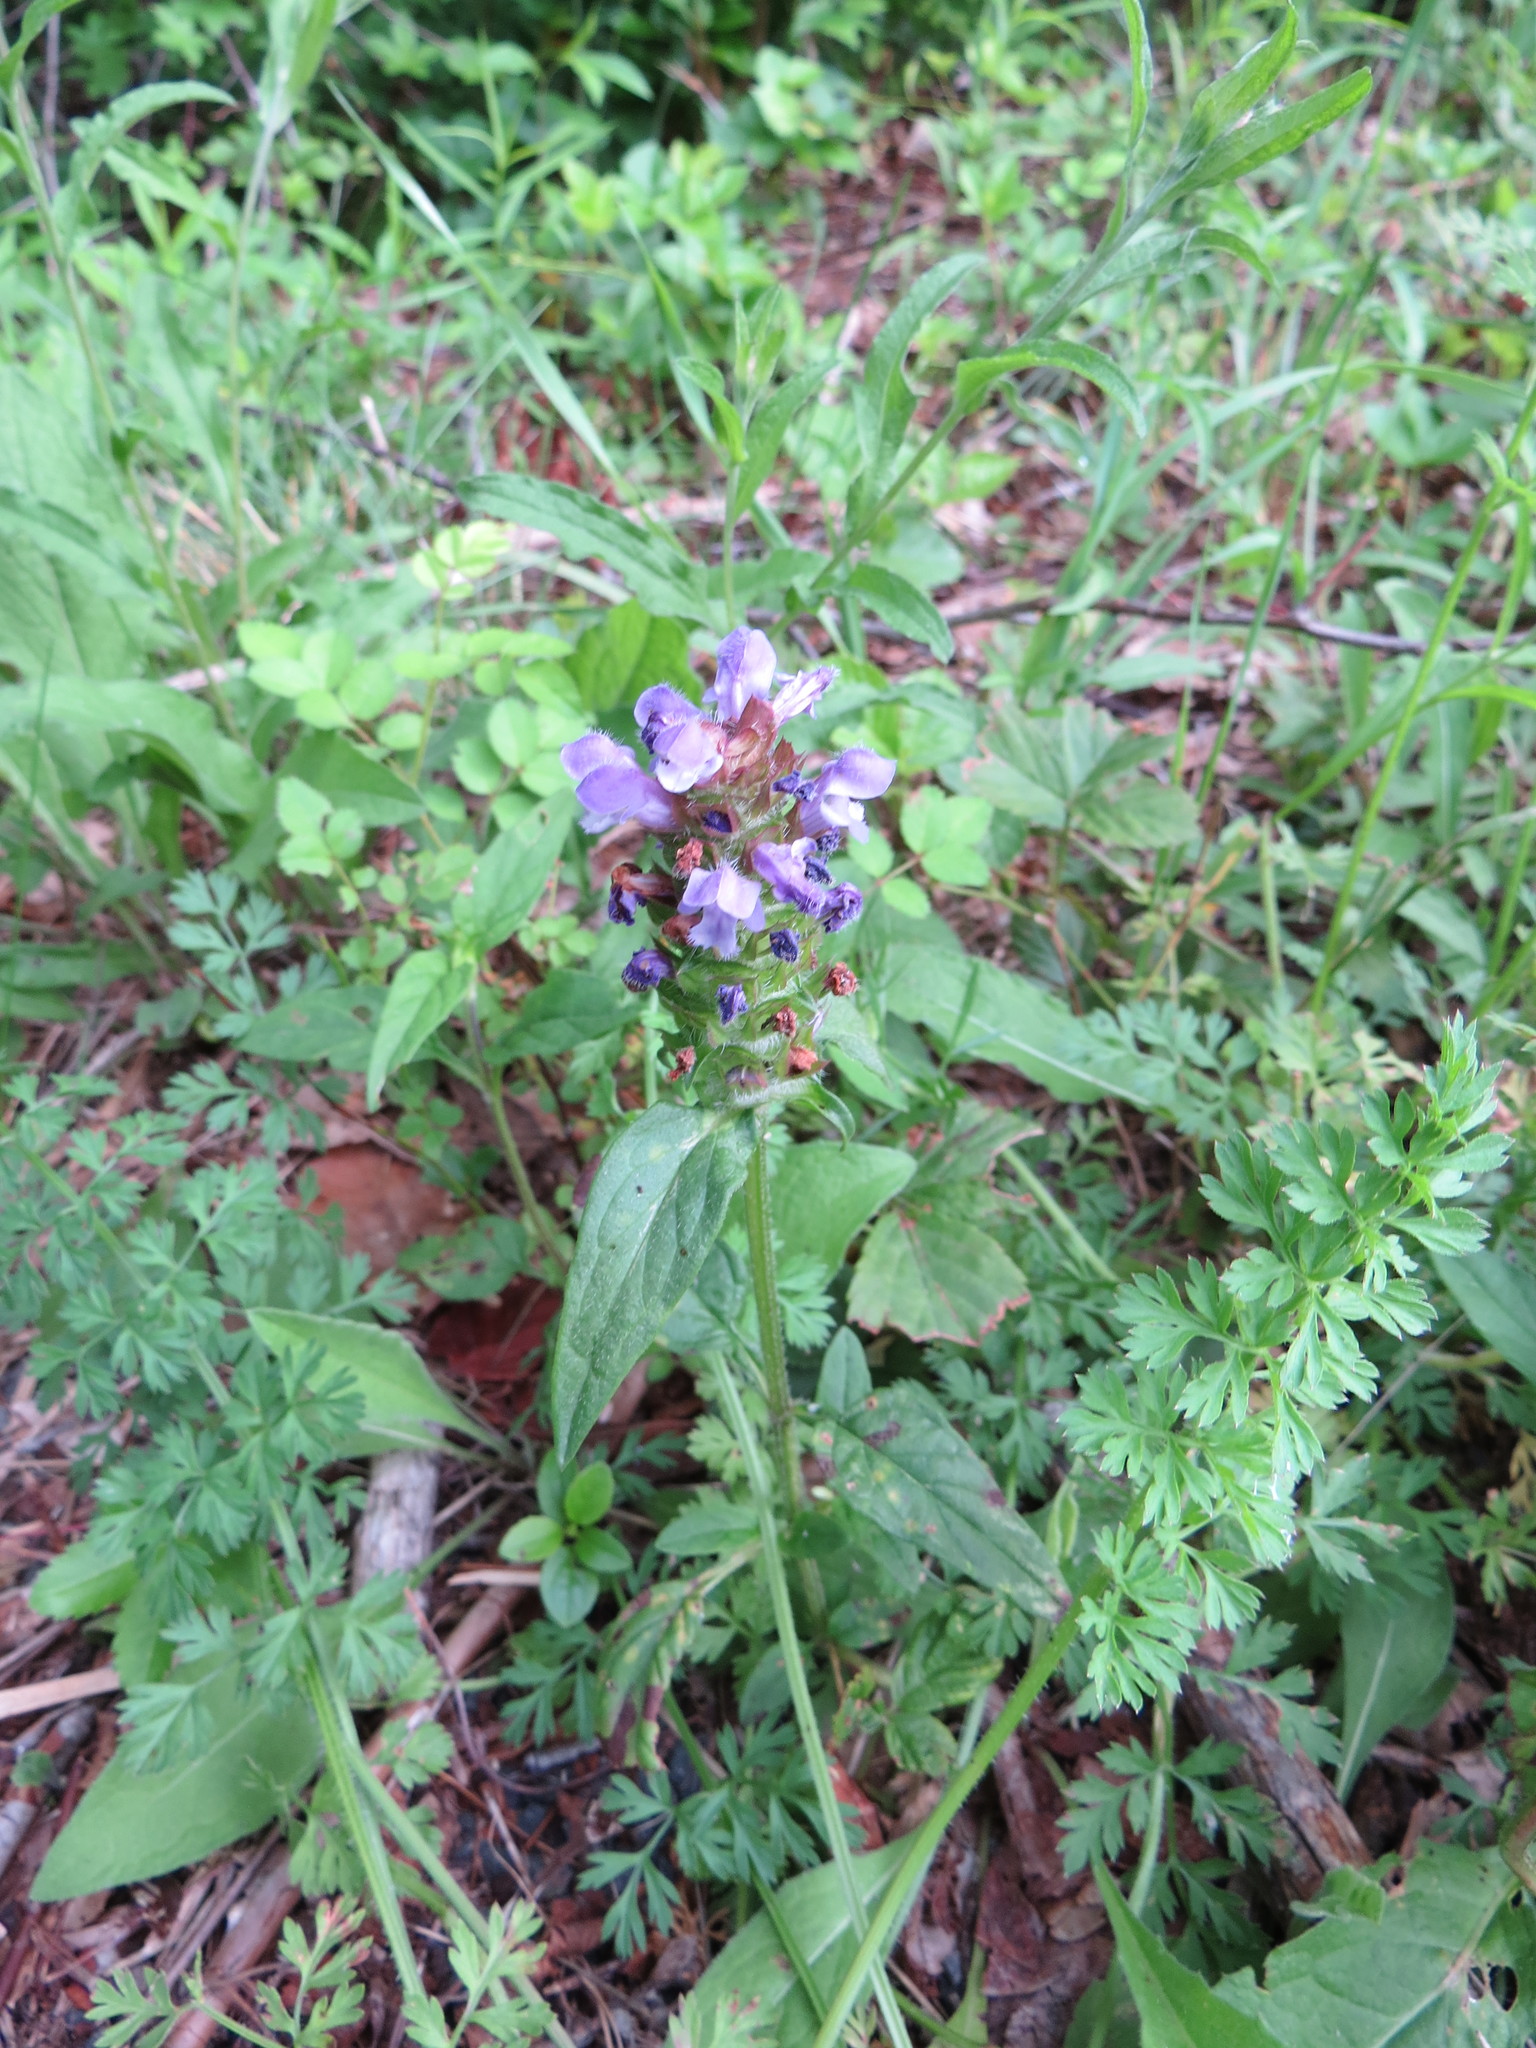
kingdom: Plantae
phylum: Tracheophyta
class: Magnoliopsida
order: Lamiales
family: Lamiaceae
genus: Prunella
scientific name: Prunella vulgaris
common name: Heal-all
